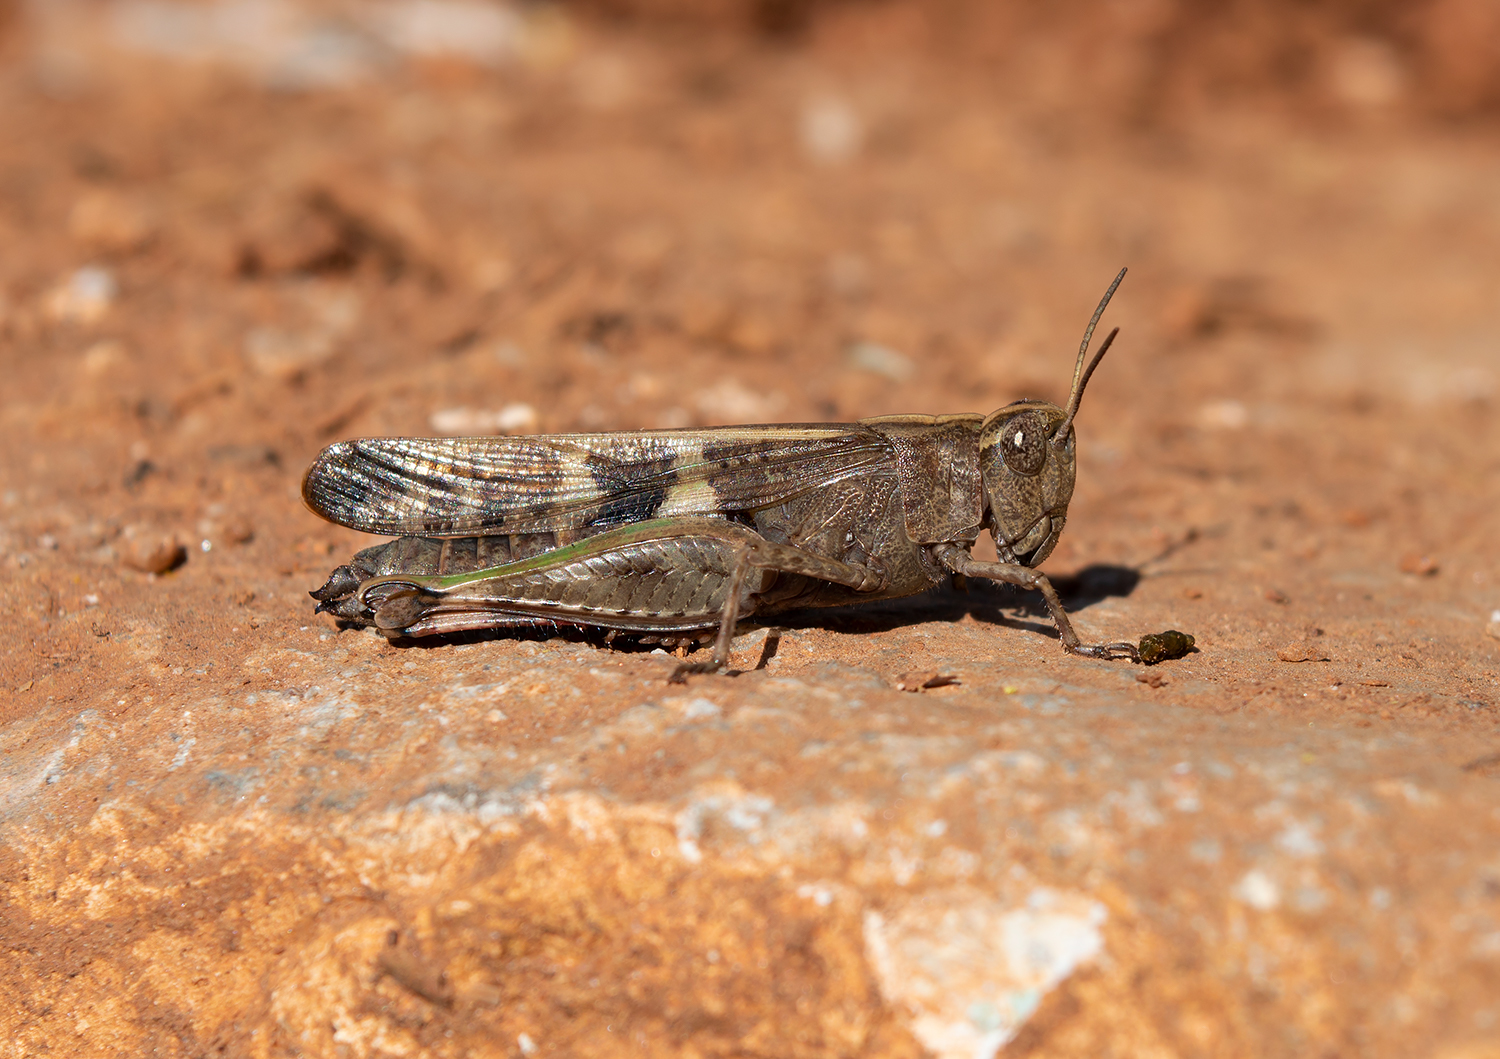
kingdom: Animalia
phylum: Arthropoda
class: Insecta
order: Orthoptera
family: Acrididae
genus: Aiolopus
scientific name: Aiolopus strepens
